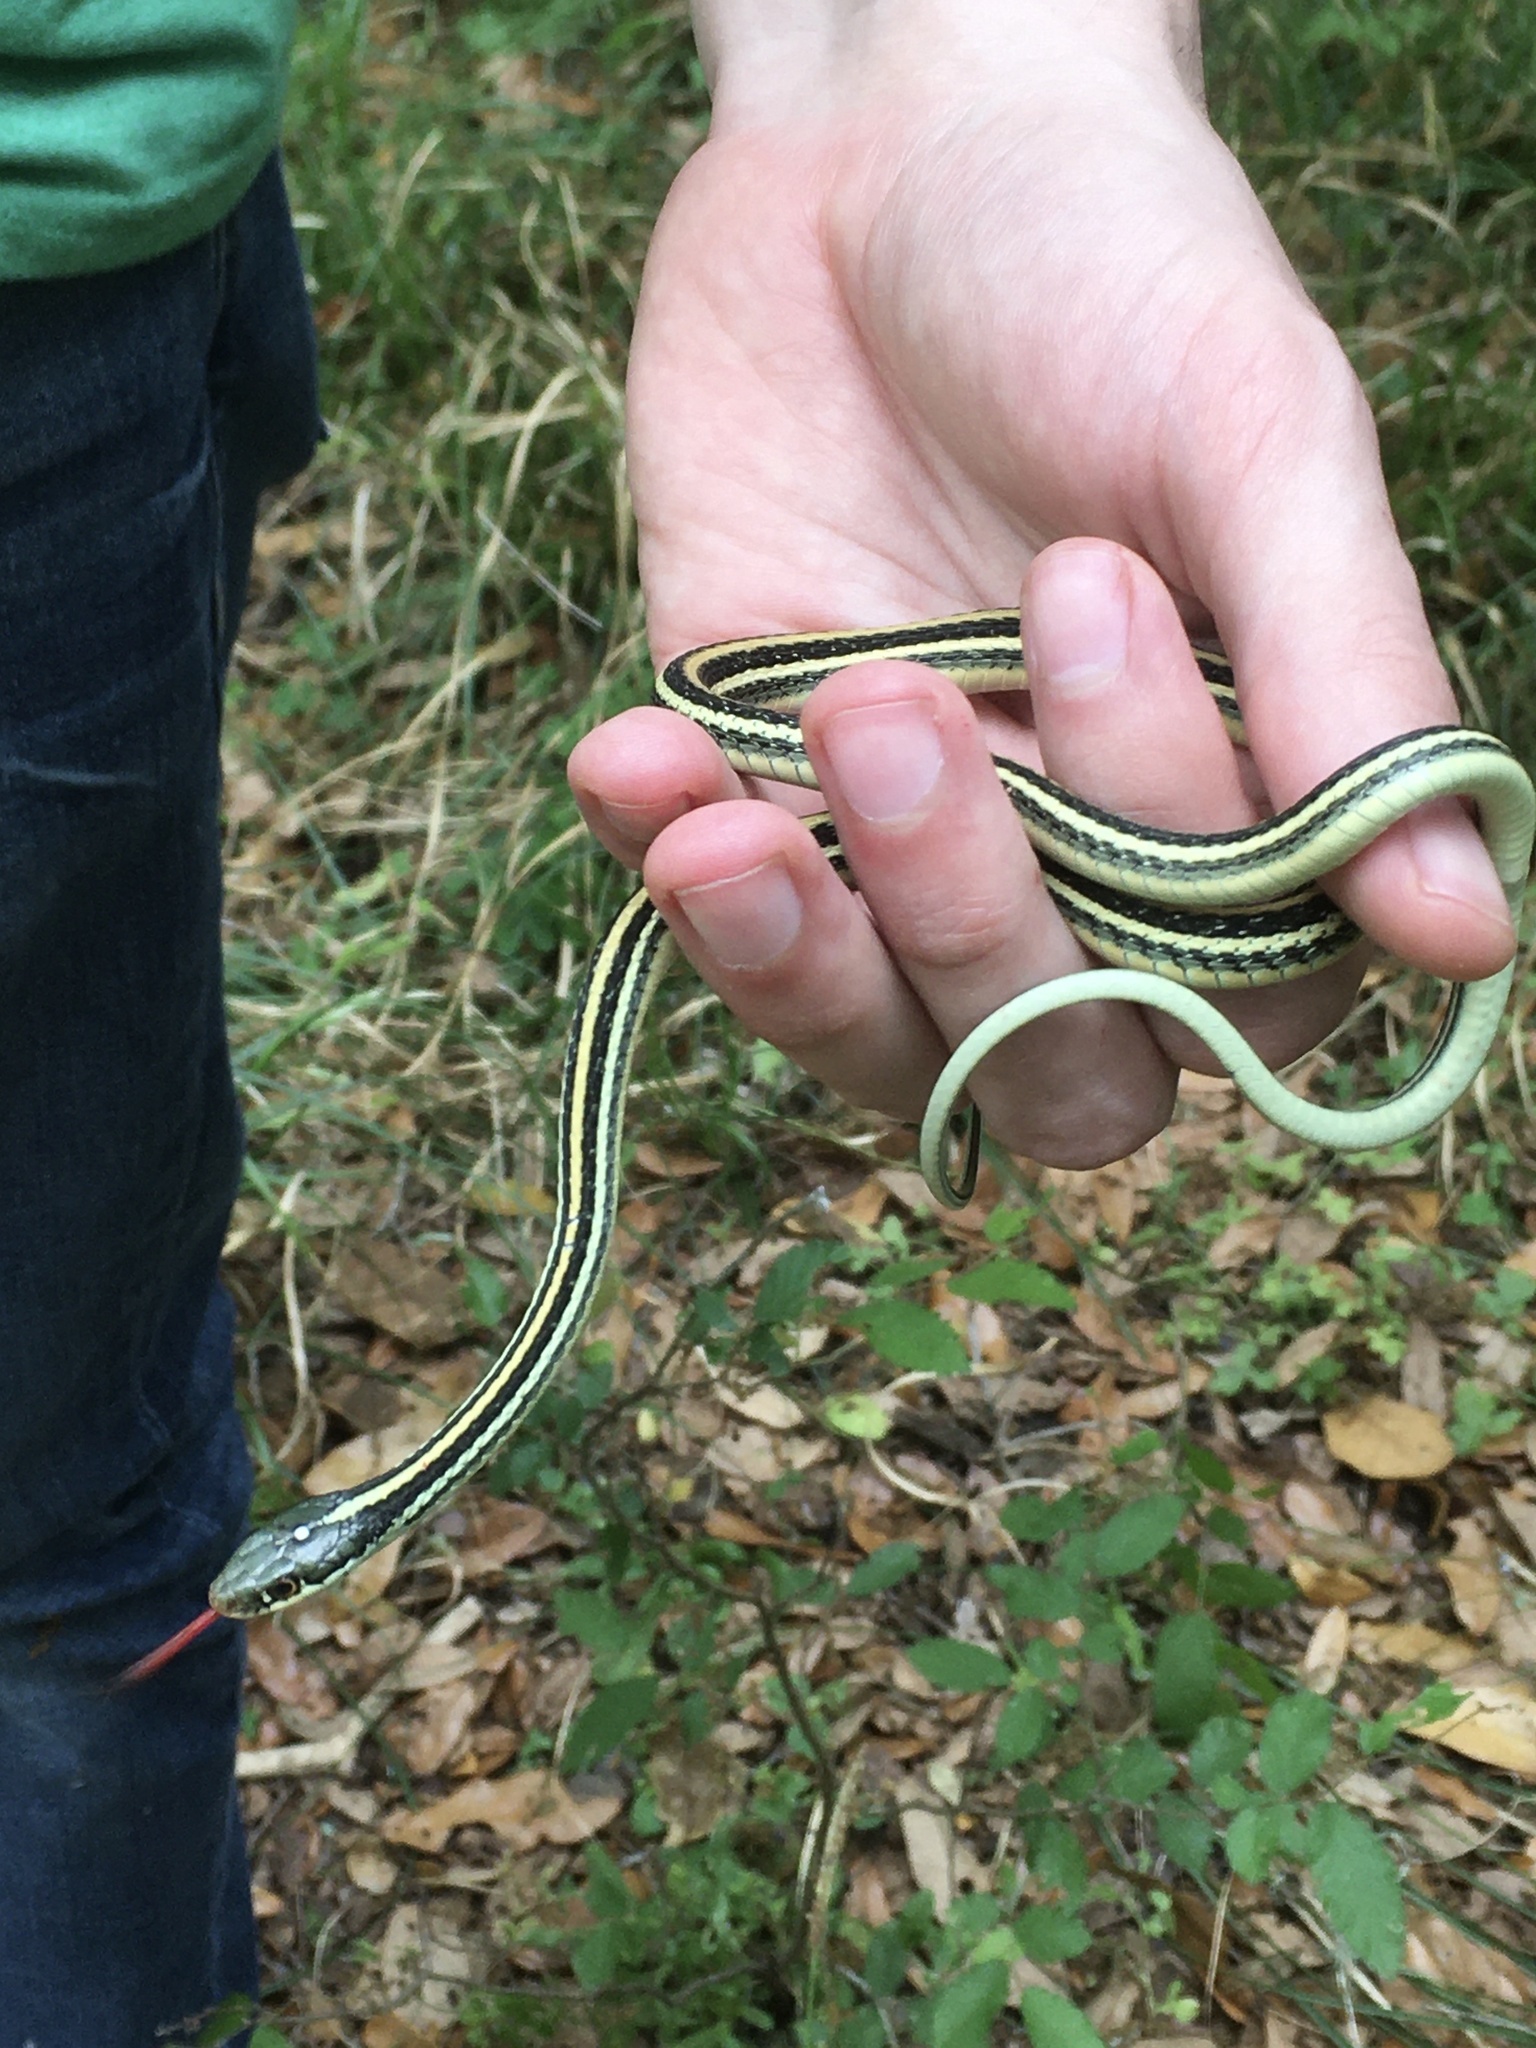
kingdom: Animalia
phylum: Chordata
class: Squamata
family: Colubridae
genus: Thamnophis
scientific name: Thamnophis proximus
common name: Western ribbon snake
